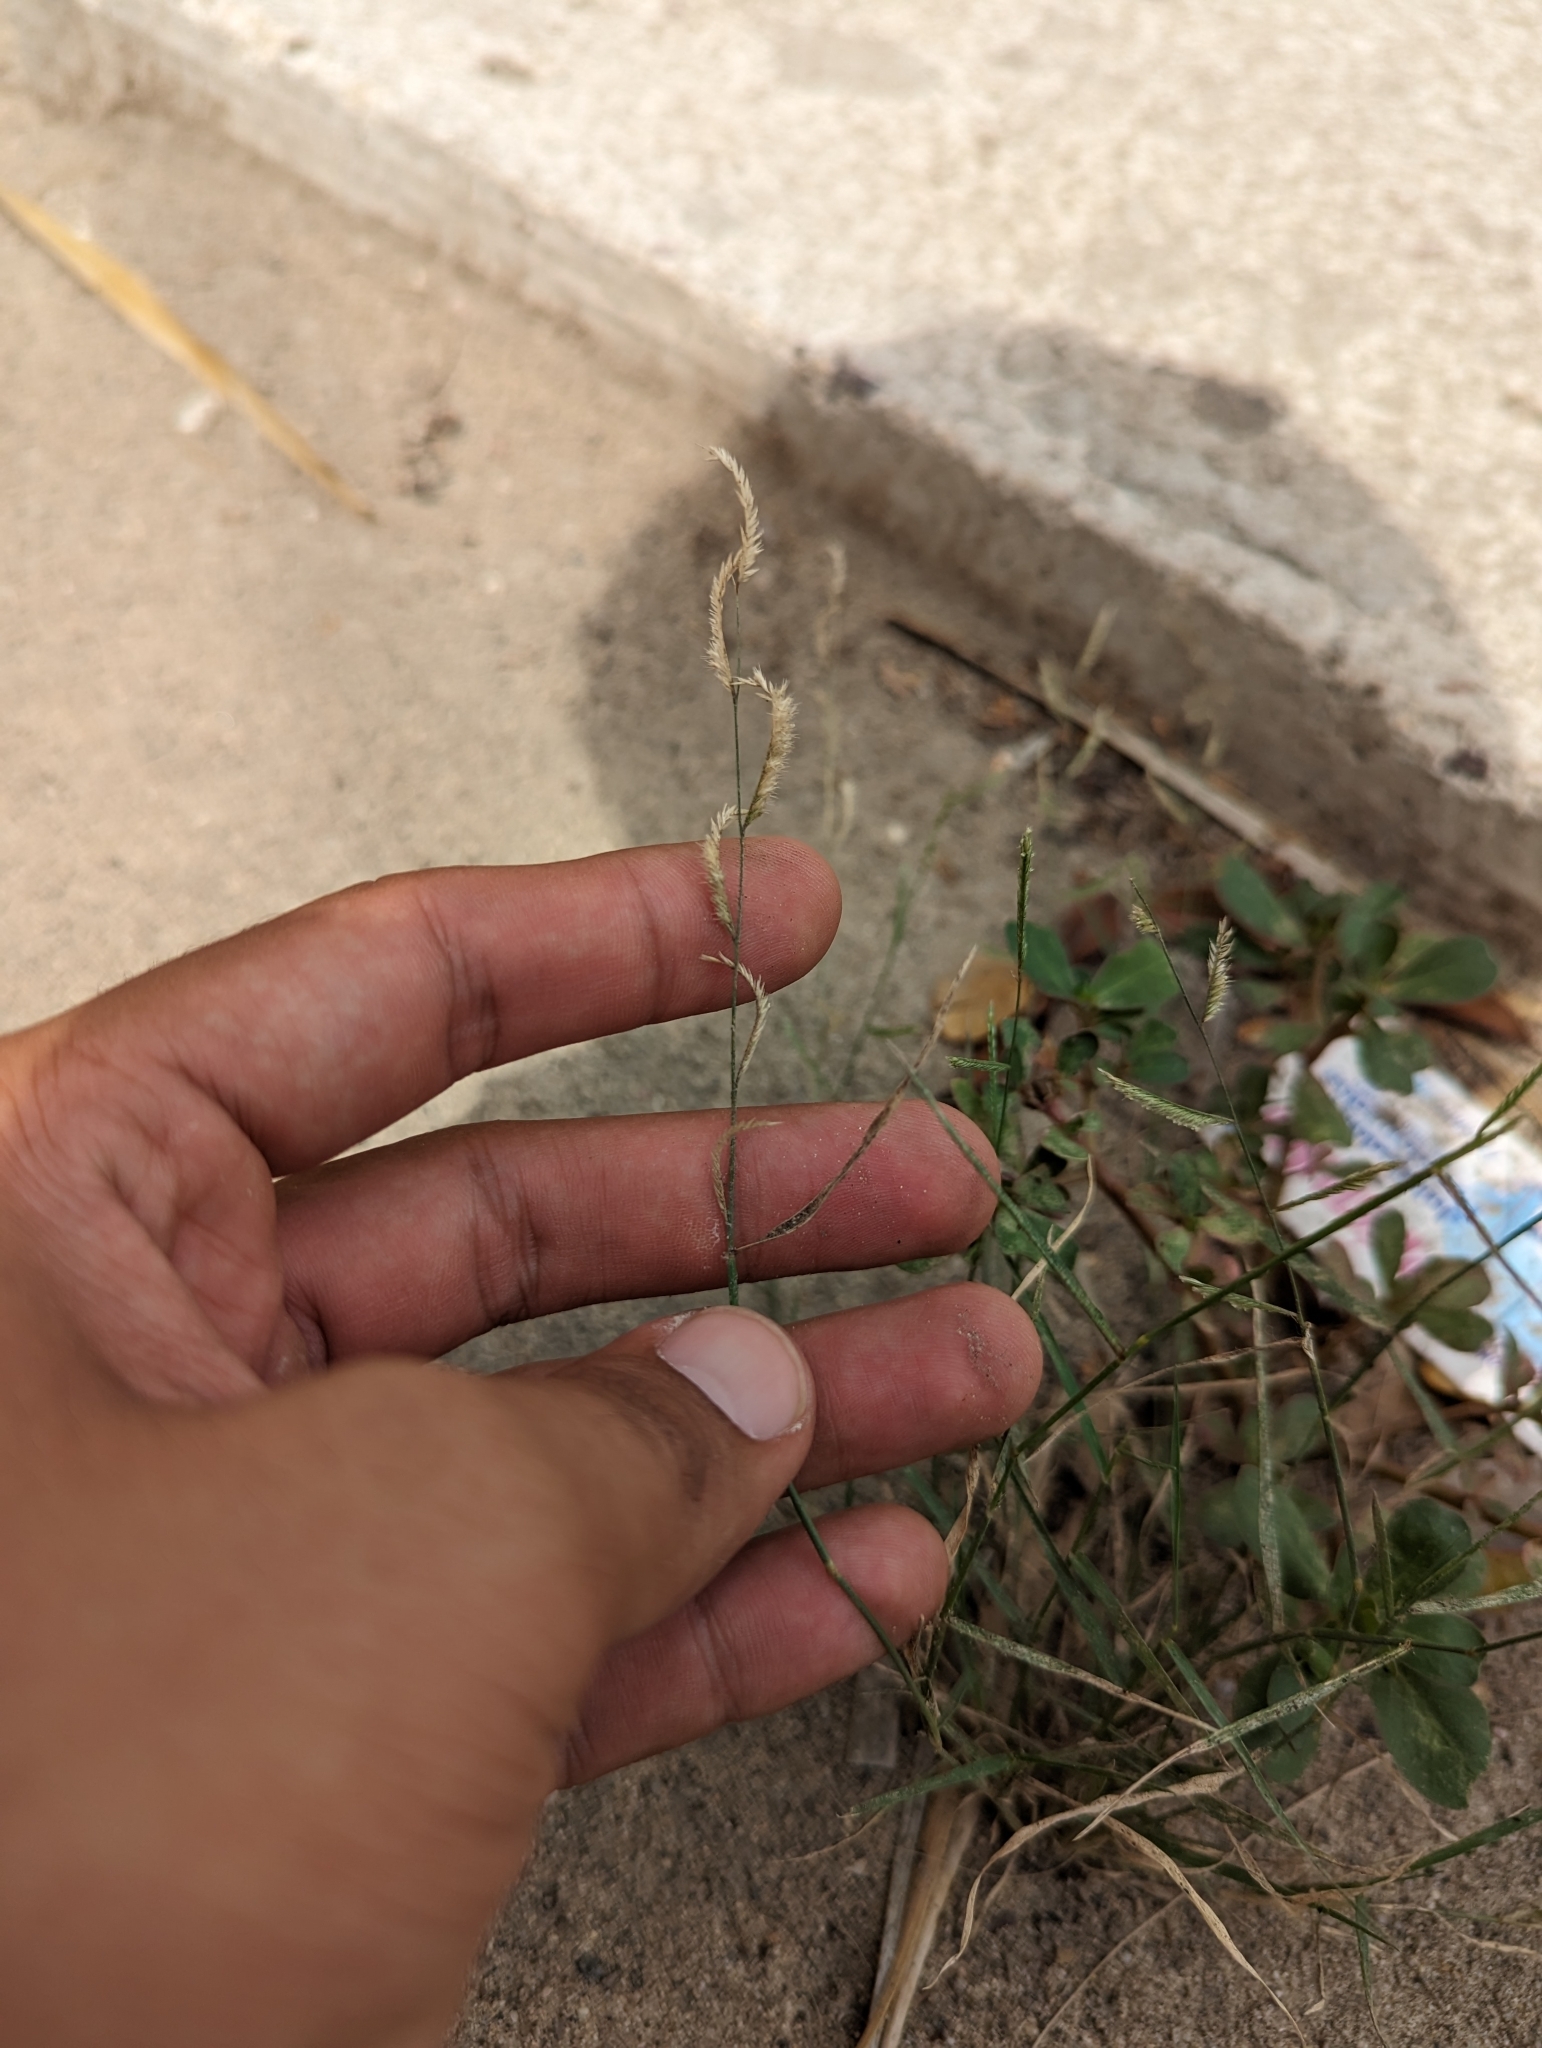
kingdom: Plantae
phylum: Tracheophyta
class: Liliopsida
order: Poales
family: Poaceae
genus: Bouteloua
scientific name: Bouteloua barbata
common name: Six-weeks grama
